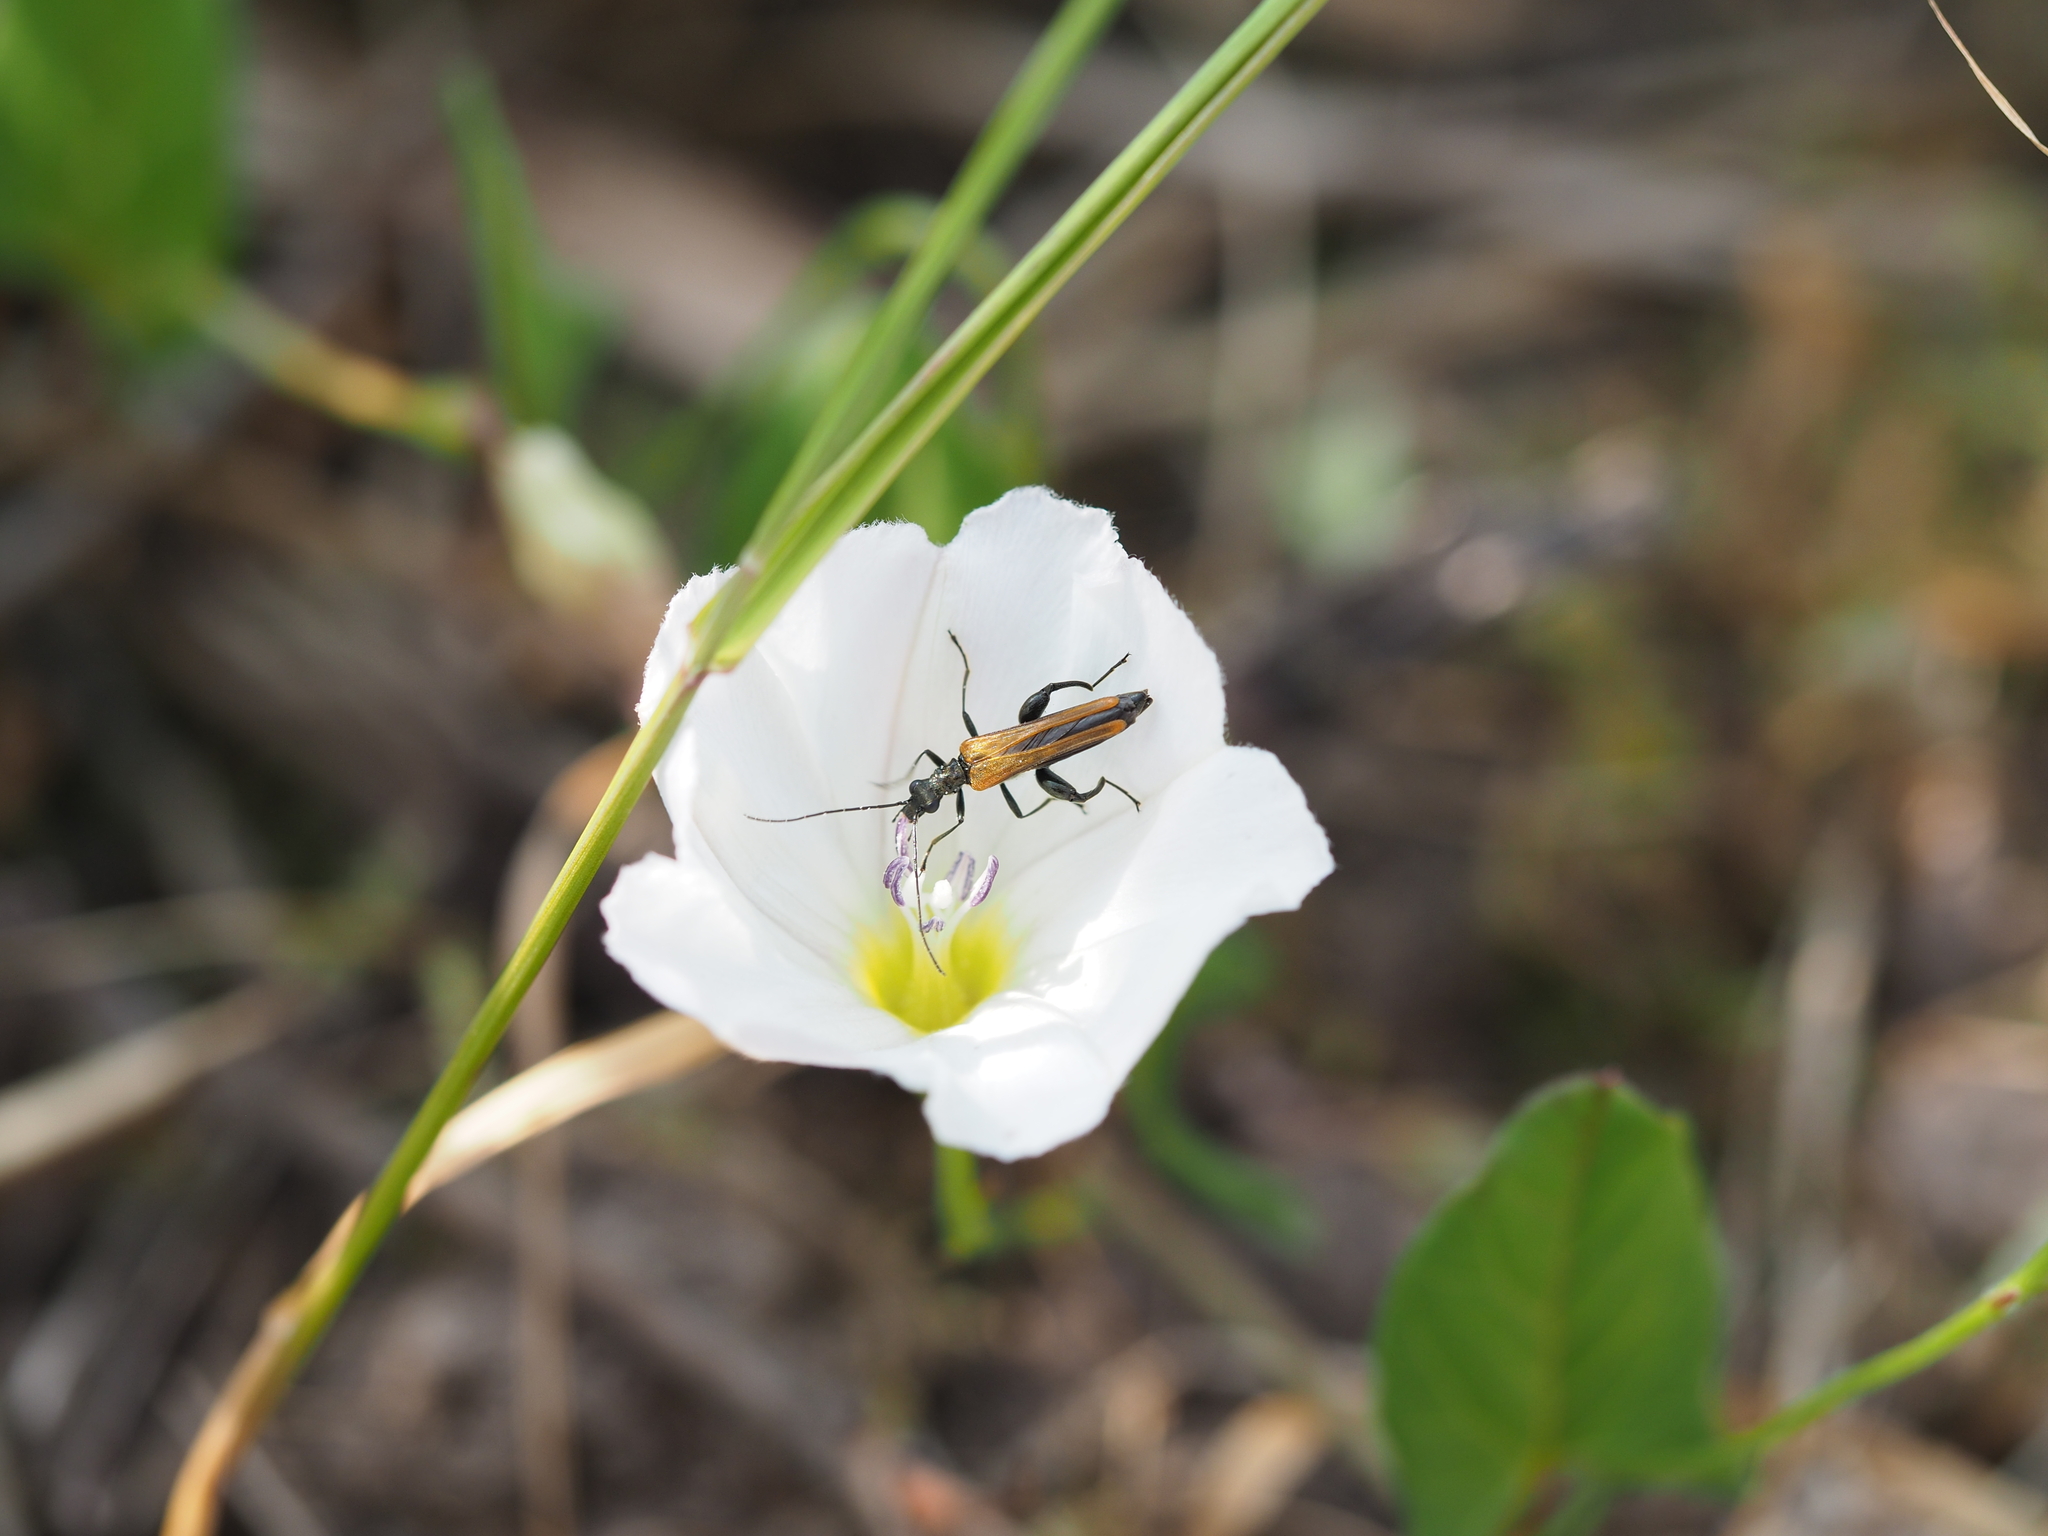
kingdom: Animalia
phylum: Arthropoda
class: Insecta
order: Coleoptera
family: Oedemeridae
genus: Oedemera
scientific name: Oedemera femorata
